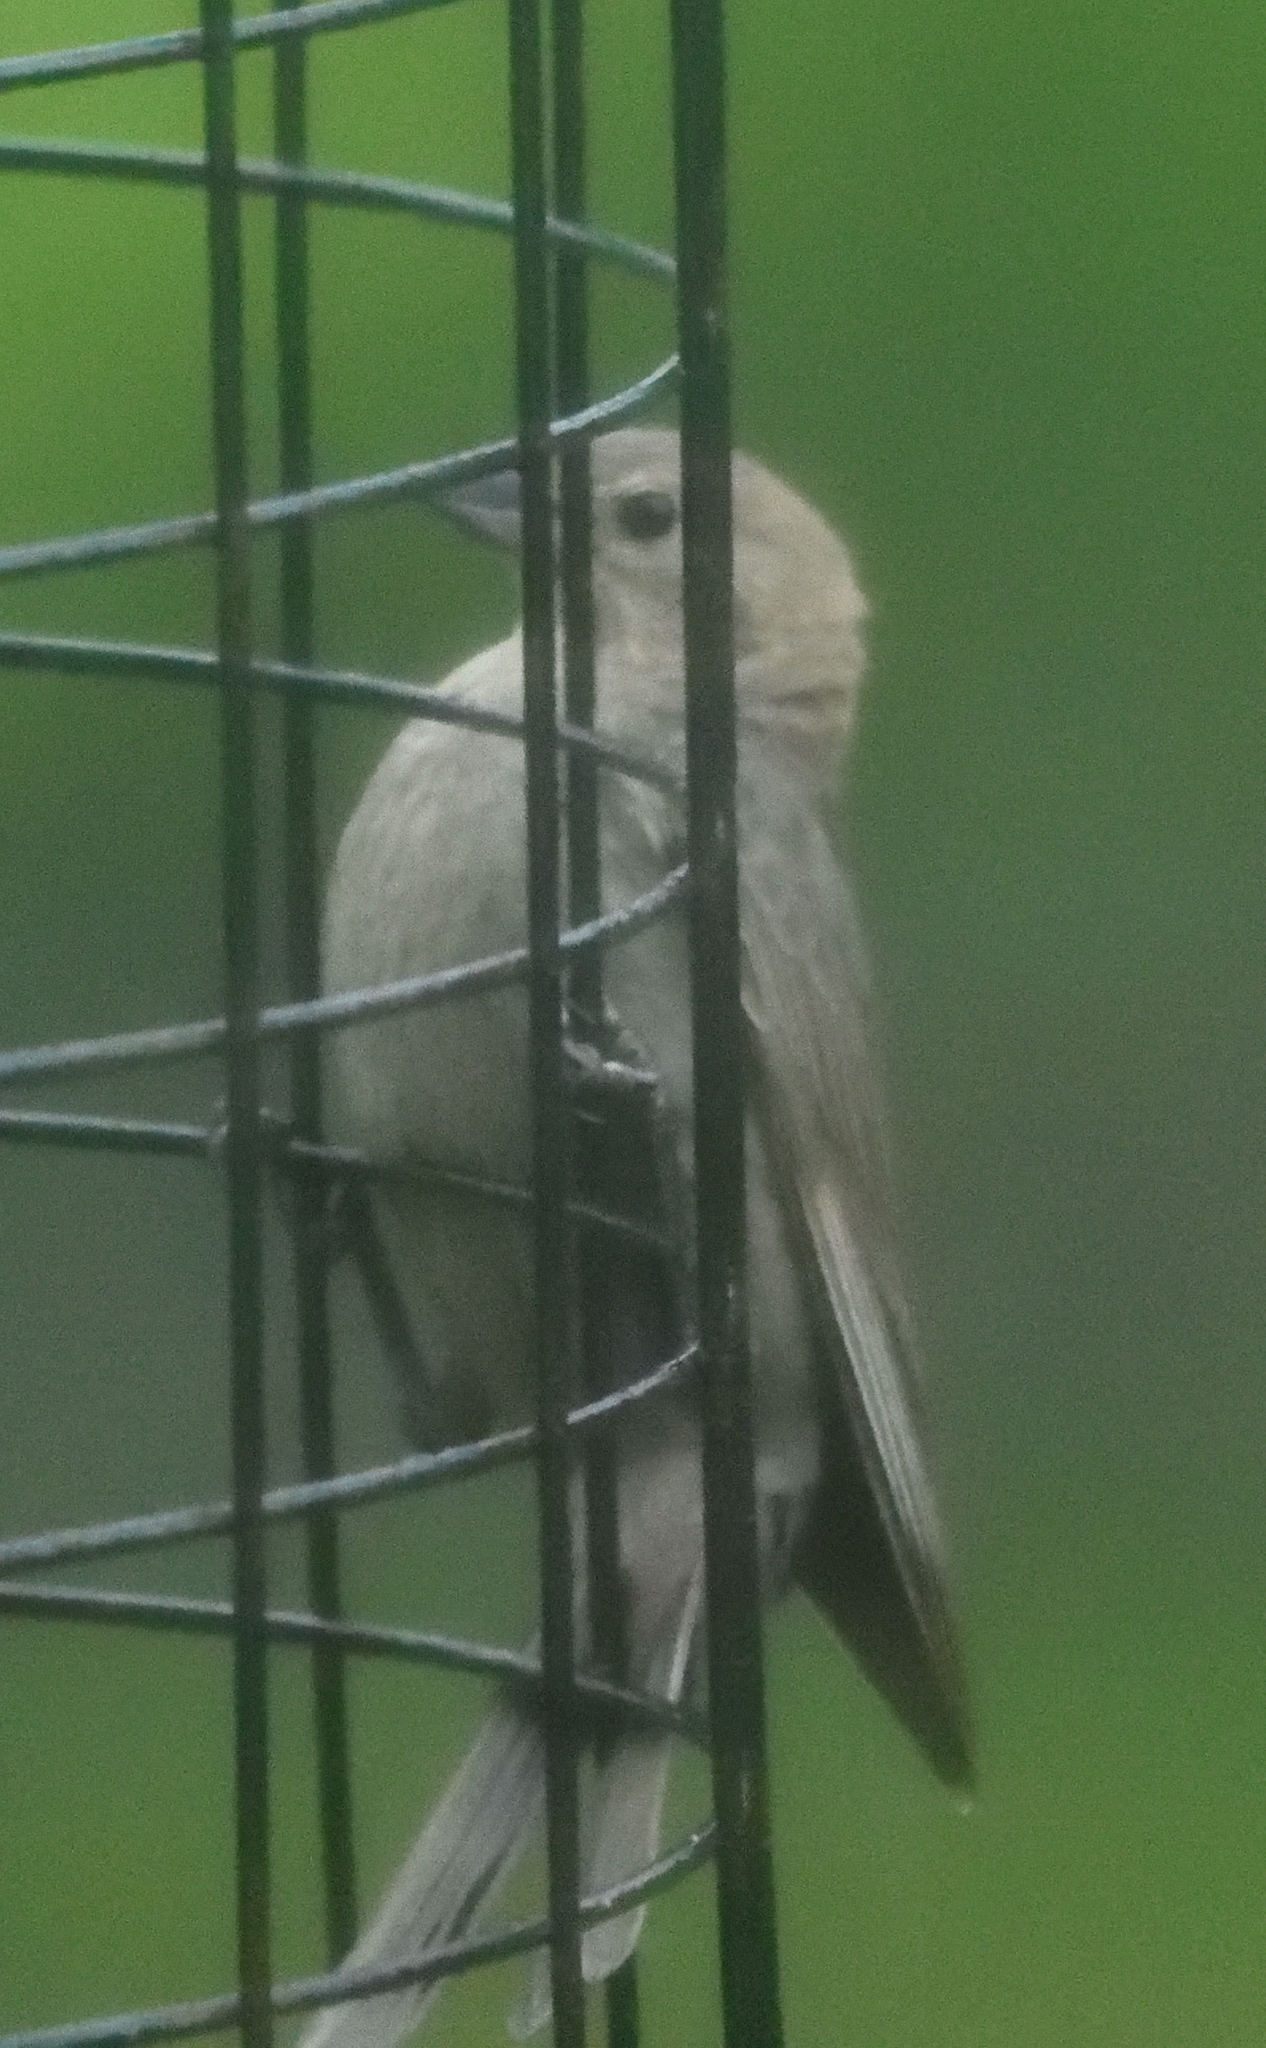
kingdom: Animalia
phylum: Chordata
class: Aves
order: Passeriformes
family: Icteridae
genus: Molothrus
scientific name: Molothrus ater
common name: Brown-headed cowbird
